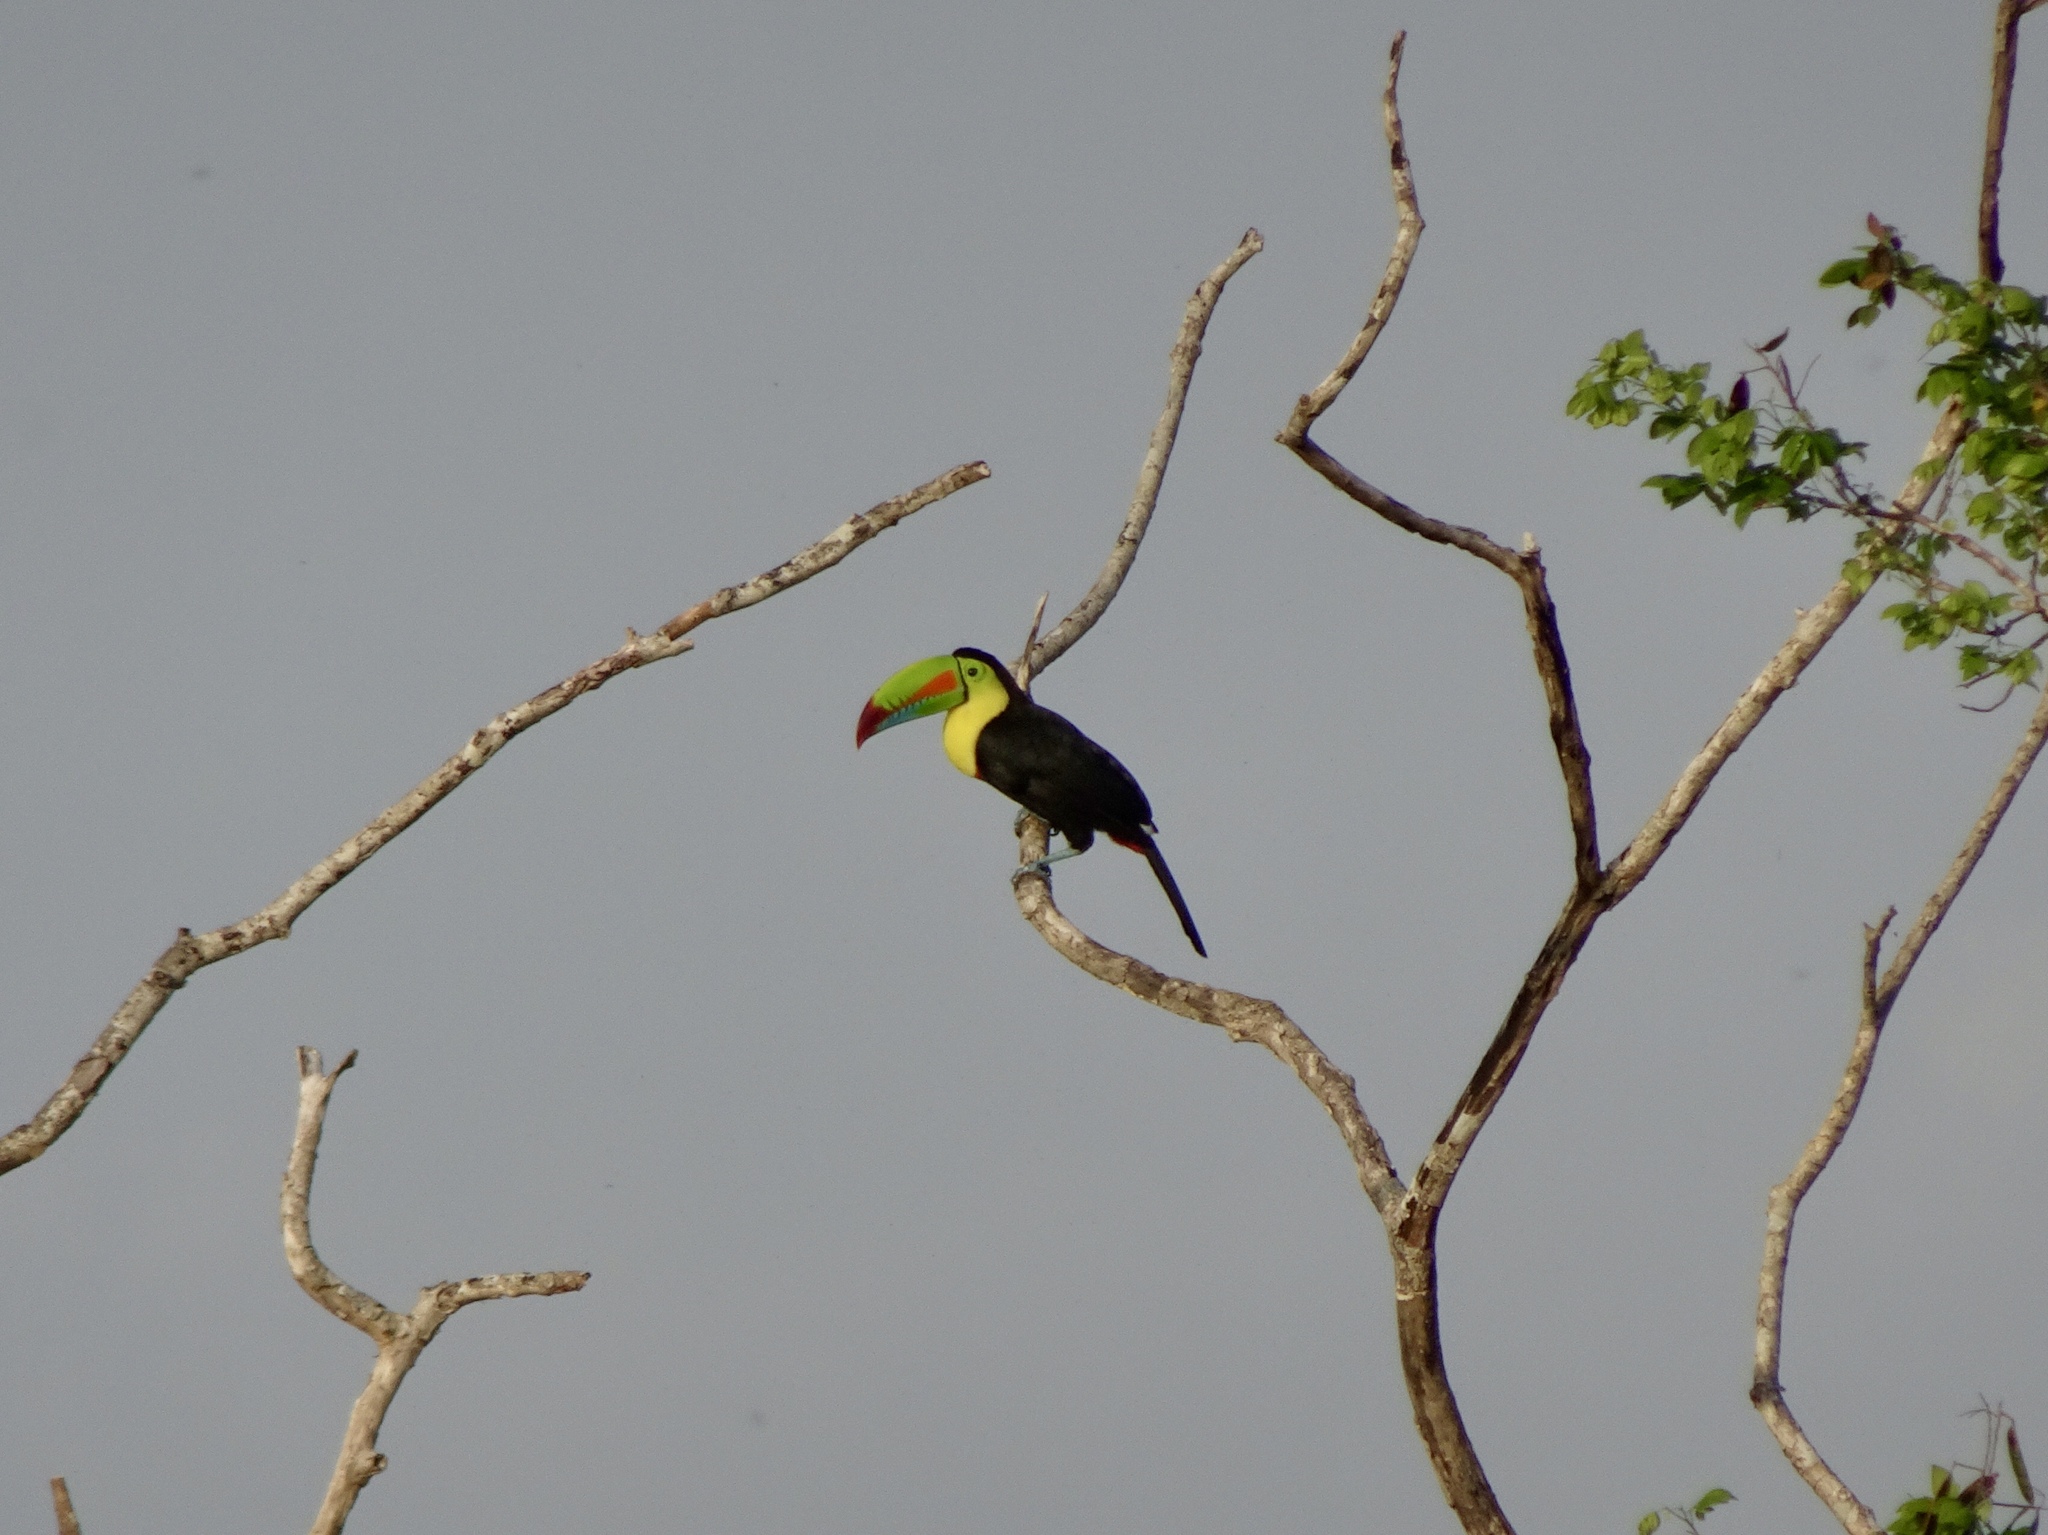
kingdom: Animalia
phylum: Chordata
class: Aves
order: Piciformes
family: Ramphastidae
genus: Ramphastos
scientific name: Ramphastos sulfuratus
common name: Keel-billed toucan
